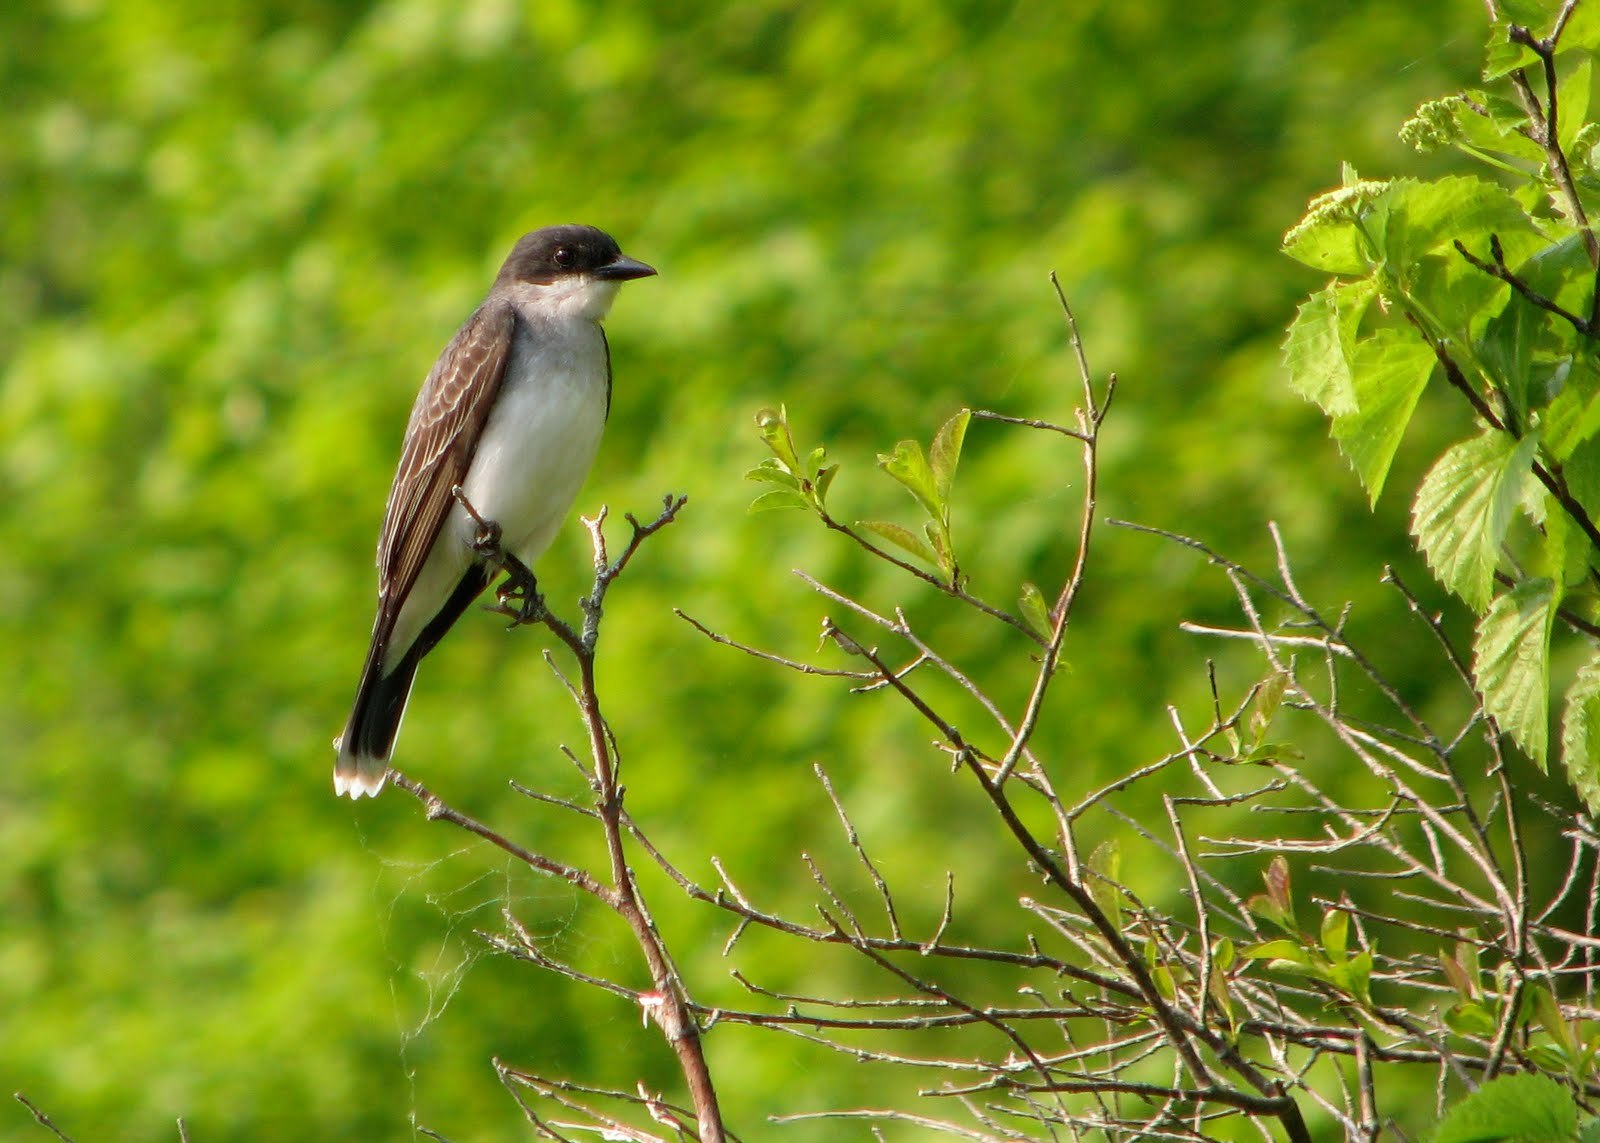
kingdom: Animalia
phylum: Chordata
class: Aves
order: Passeriformes
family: Tyrannidae
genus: Tyrannus
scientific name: Tyrannus tyrannus
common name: Eastern kingbird
